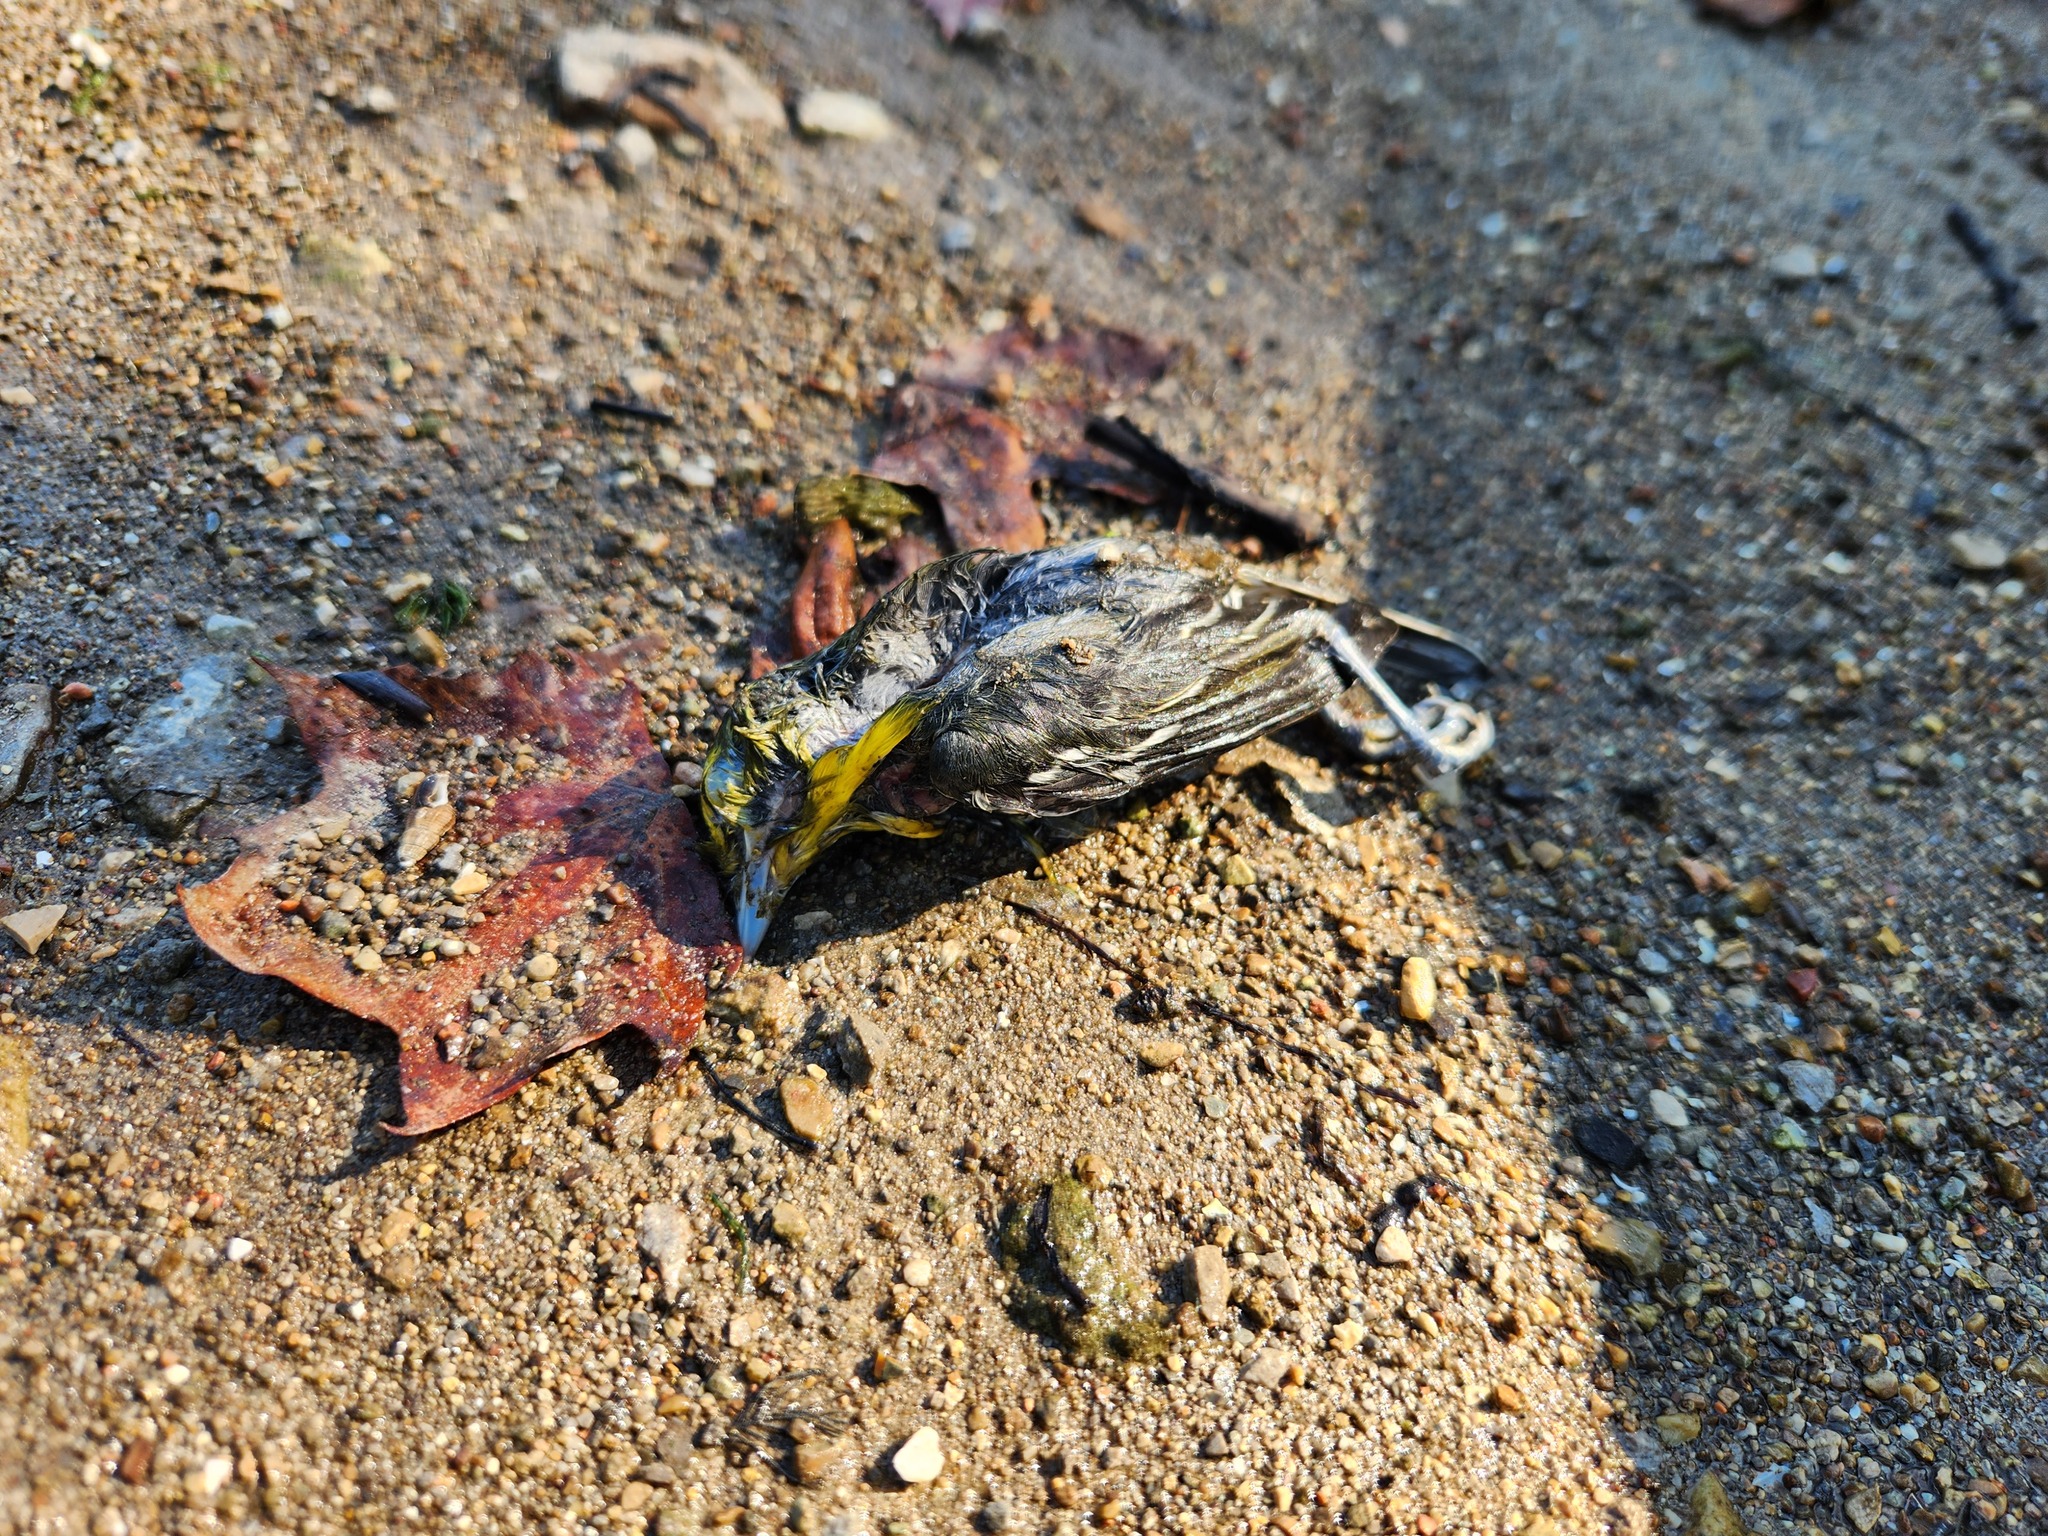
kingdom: Animalia
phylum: Chordata
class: Aves
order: Passeriformes
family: Vireonidae
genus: Vireo
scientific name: Vireo flavifrons
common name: Yellow-throated vireo
